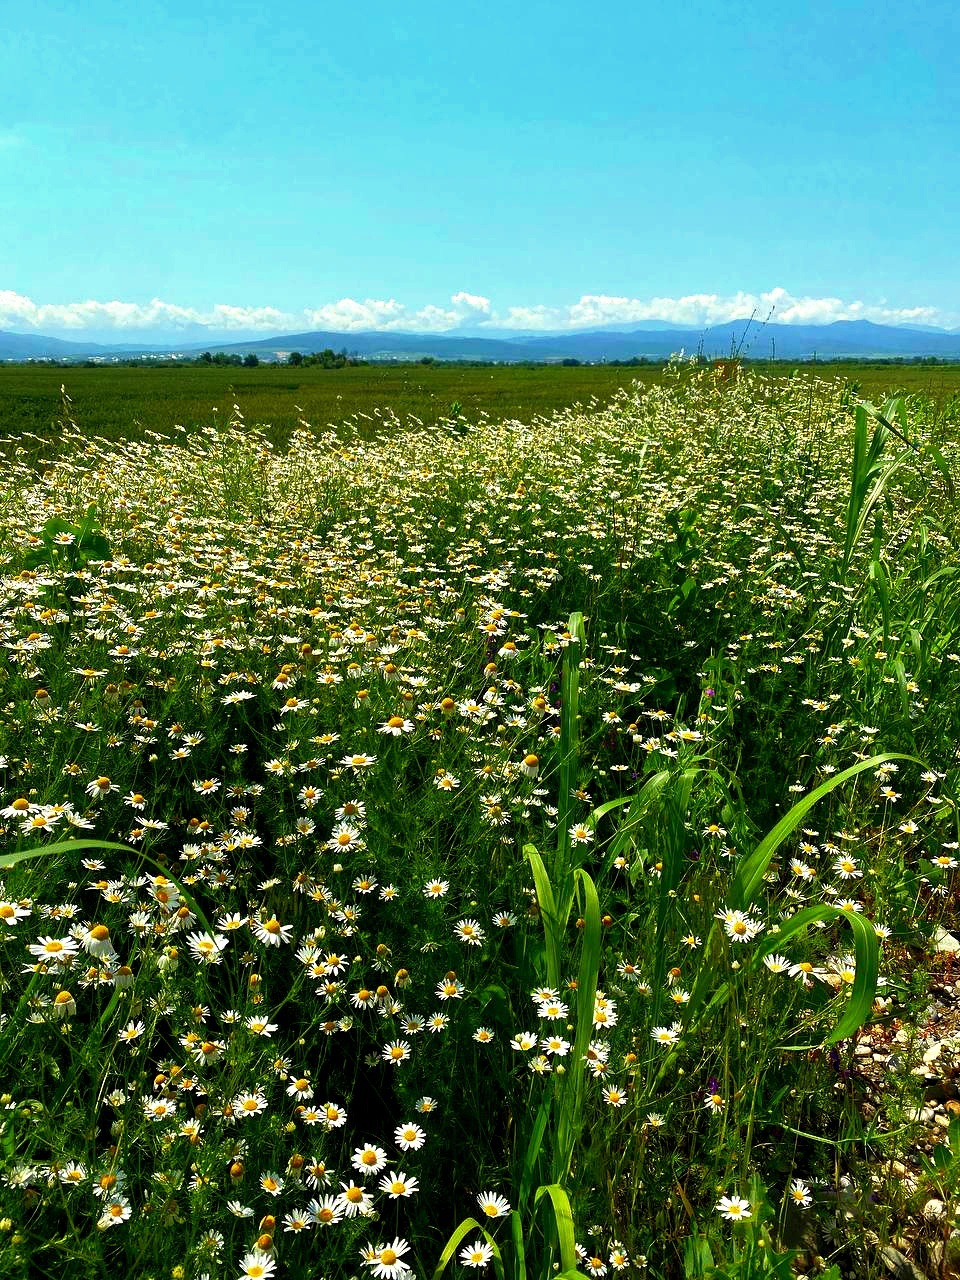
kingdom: Plantae
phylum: Tracheophyta
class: Magnoliopsida
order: Asterales
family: Asteraceae
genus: Tripleurospermum
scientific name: Tripleurospermum inodorum
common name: Scentless mayweed
